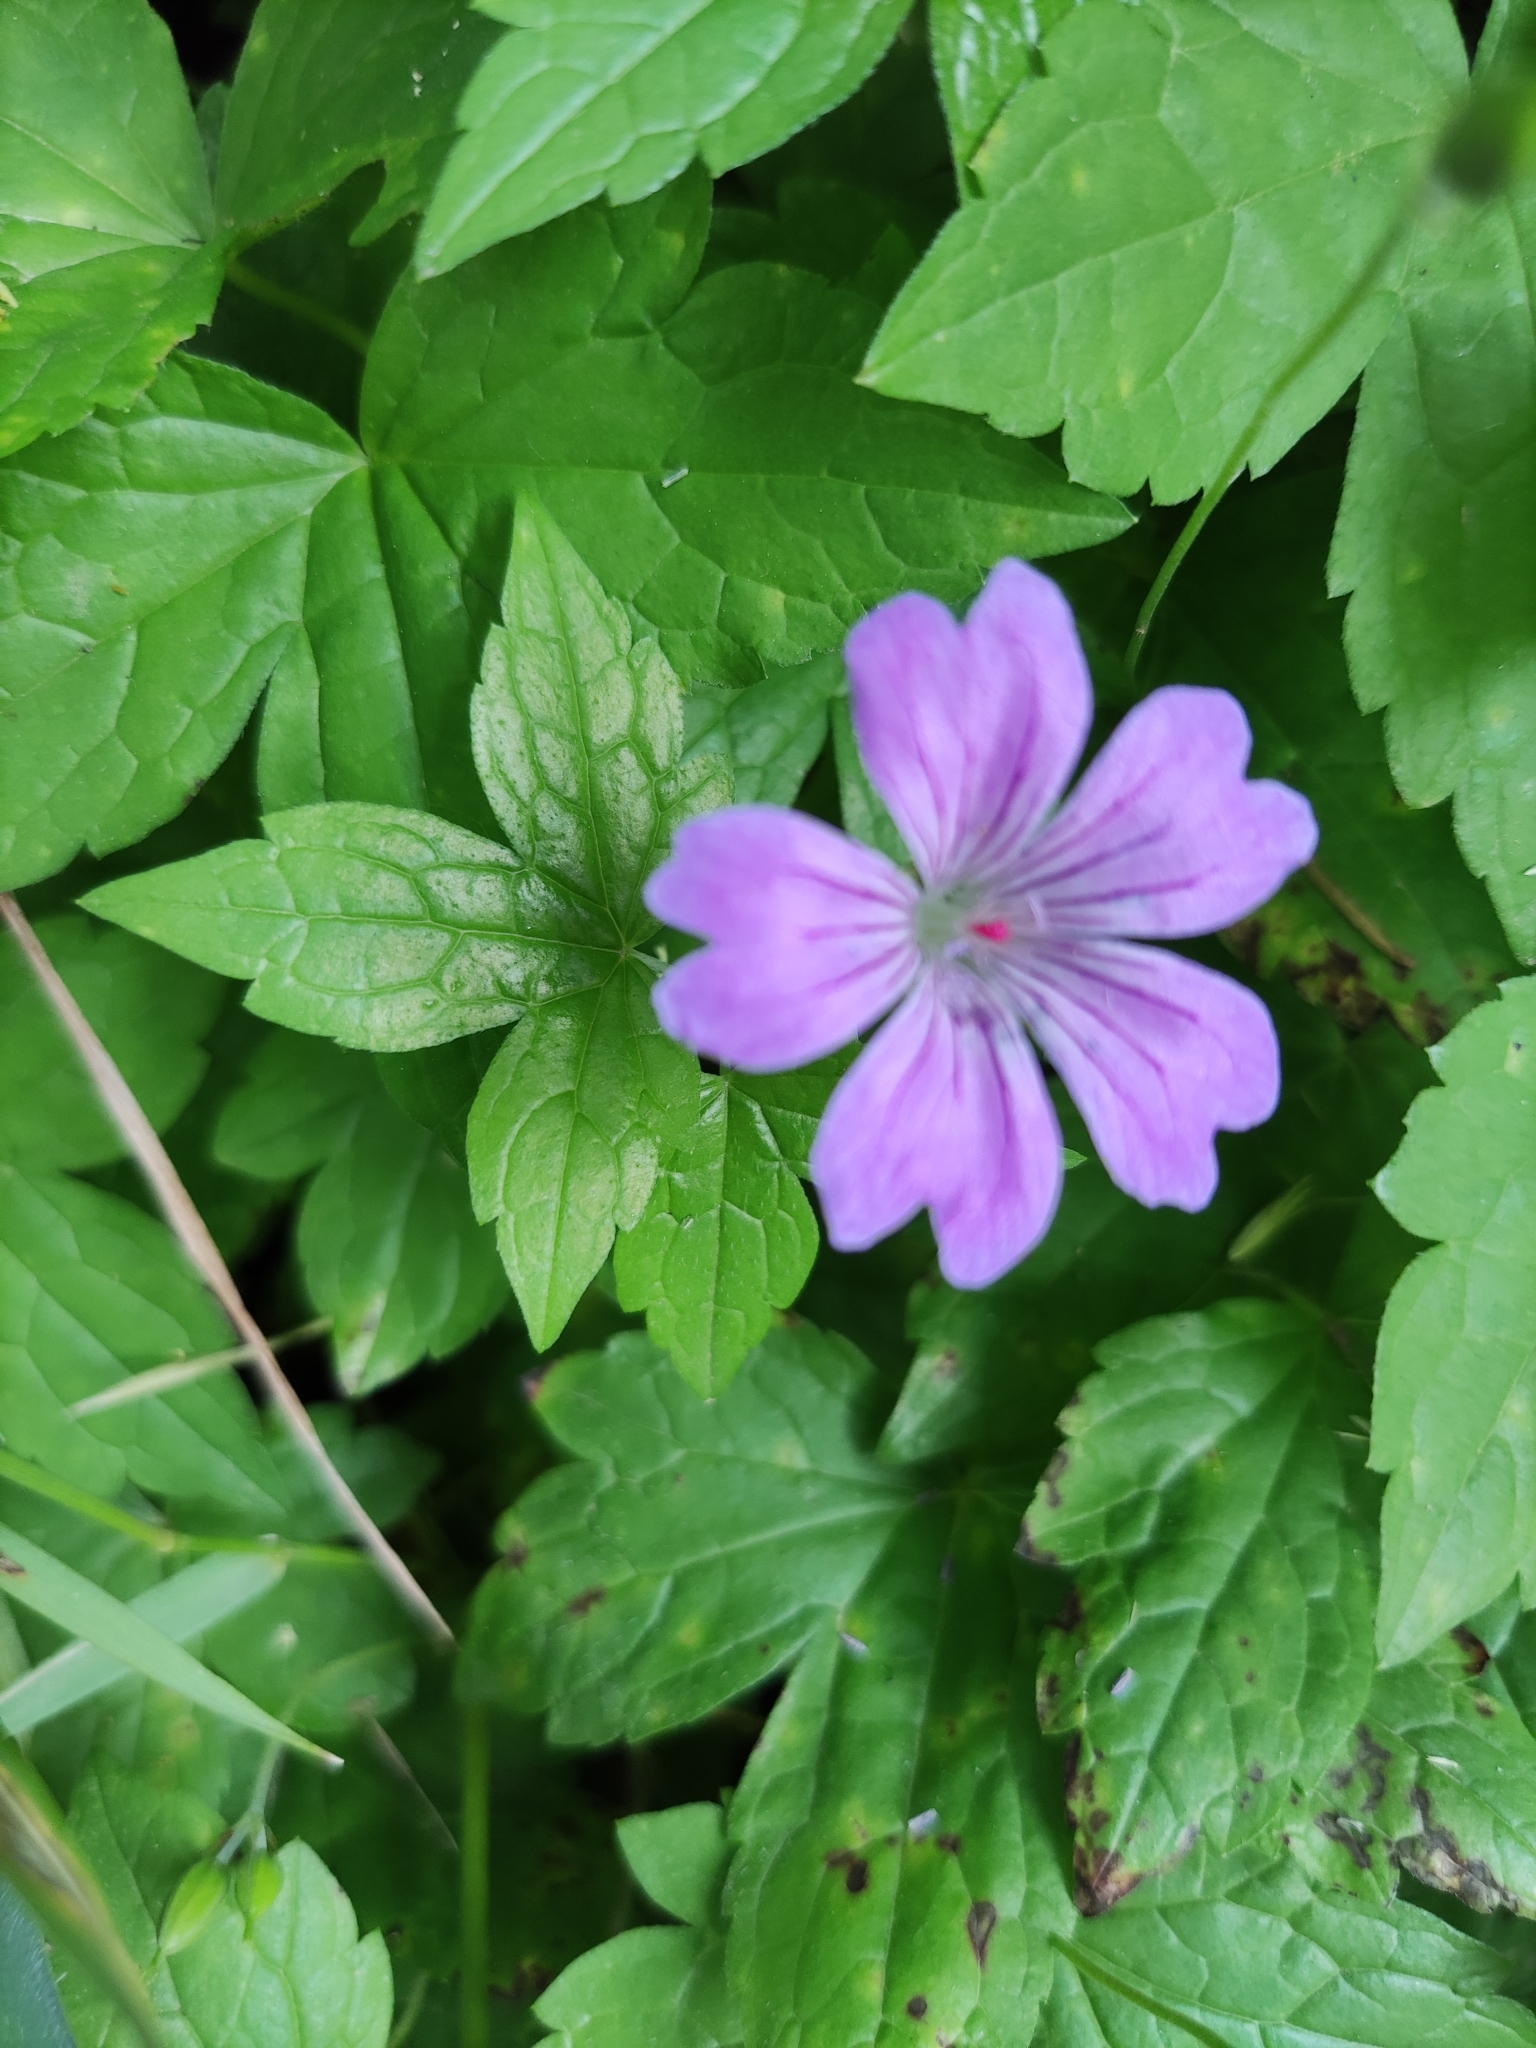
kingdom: Plantae
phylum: Tracheophyta
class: Magnoliopsida
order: Geraniales
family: Geraniaceae
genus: Geranium
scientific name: Geranium nodosum
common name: Knotted crane's-bill
